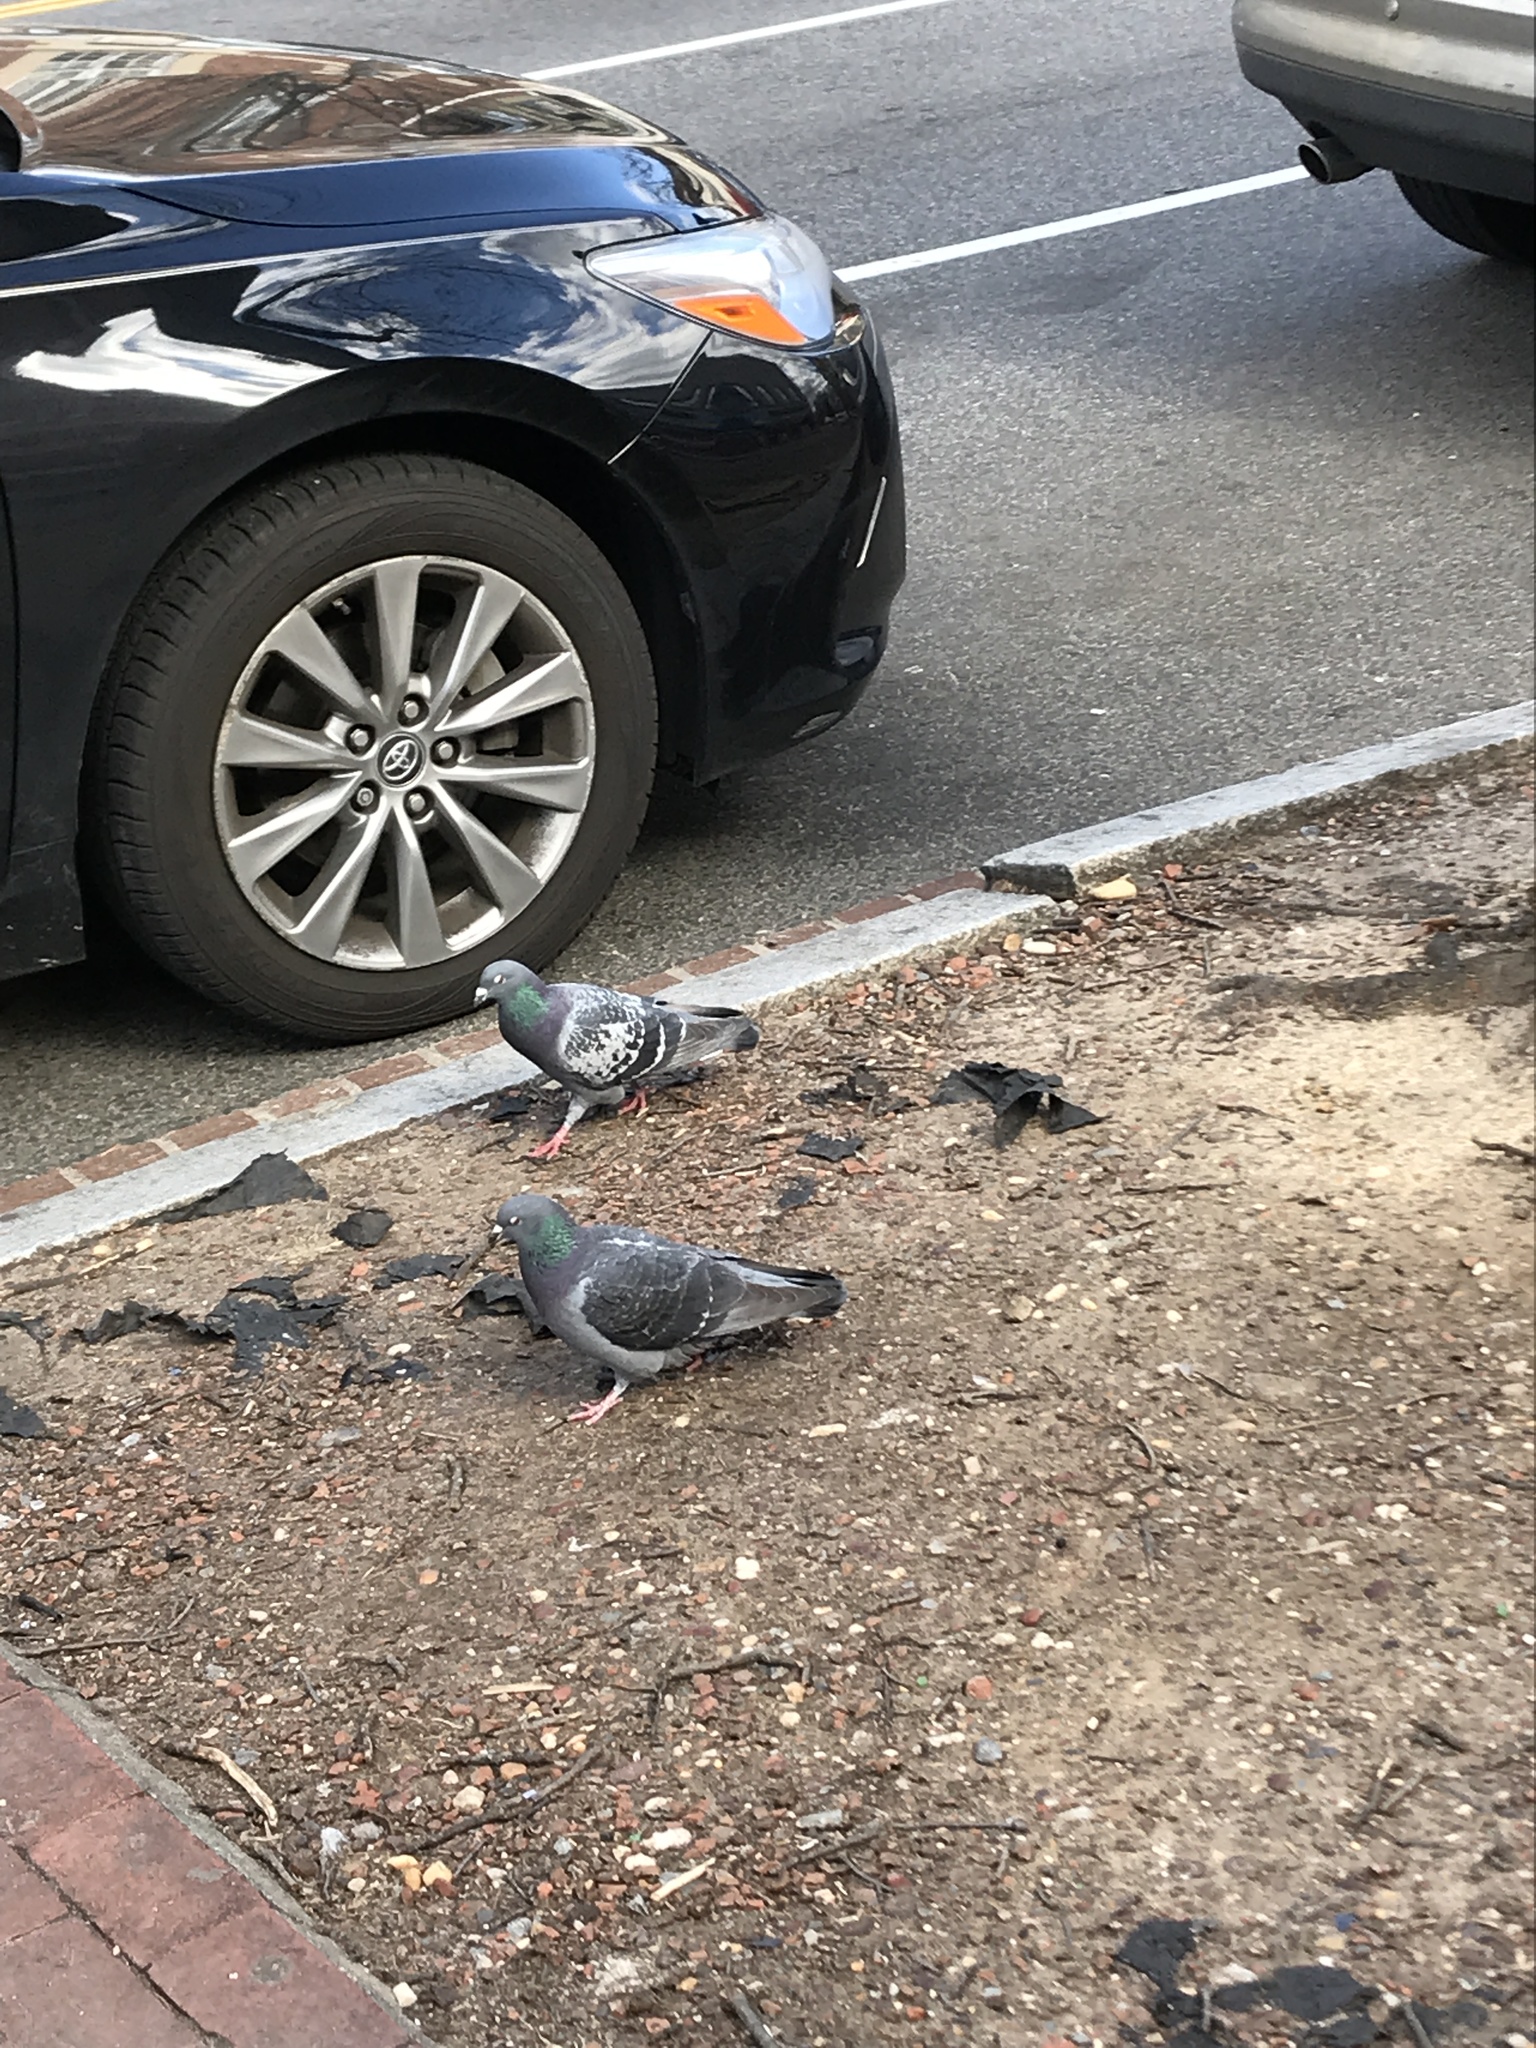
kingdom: Animalia
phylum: Chordata
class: Aves
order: Columbiformes
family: Columbidae
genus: Columba
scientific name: Columba livia
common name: Rock pigeon
